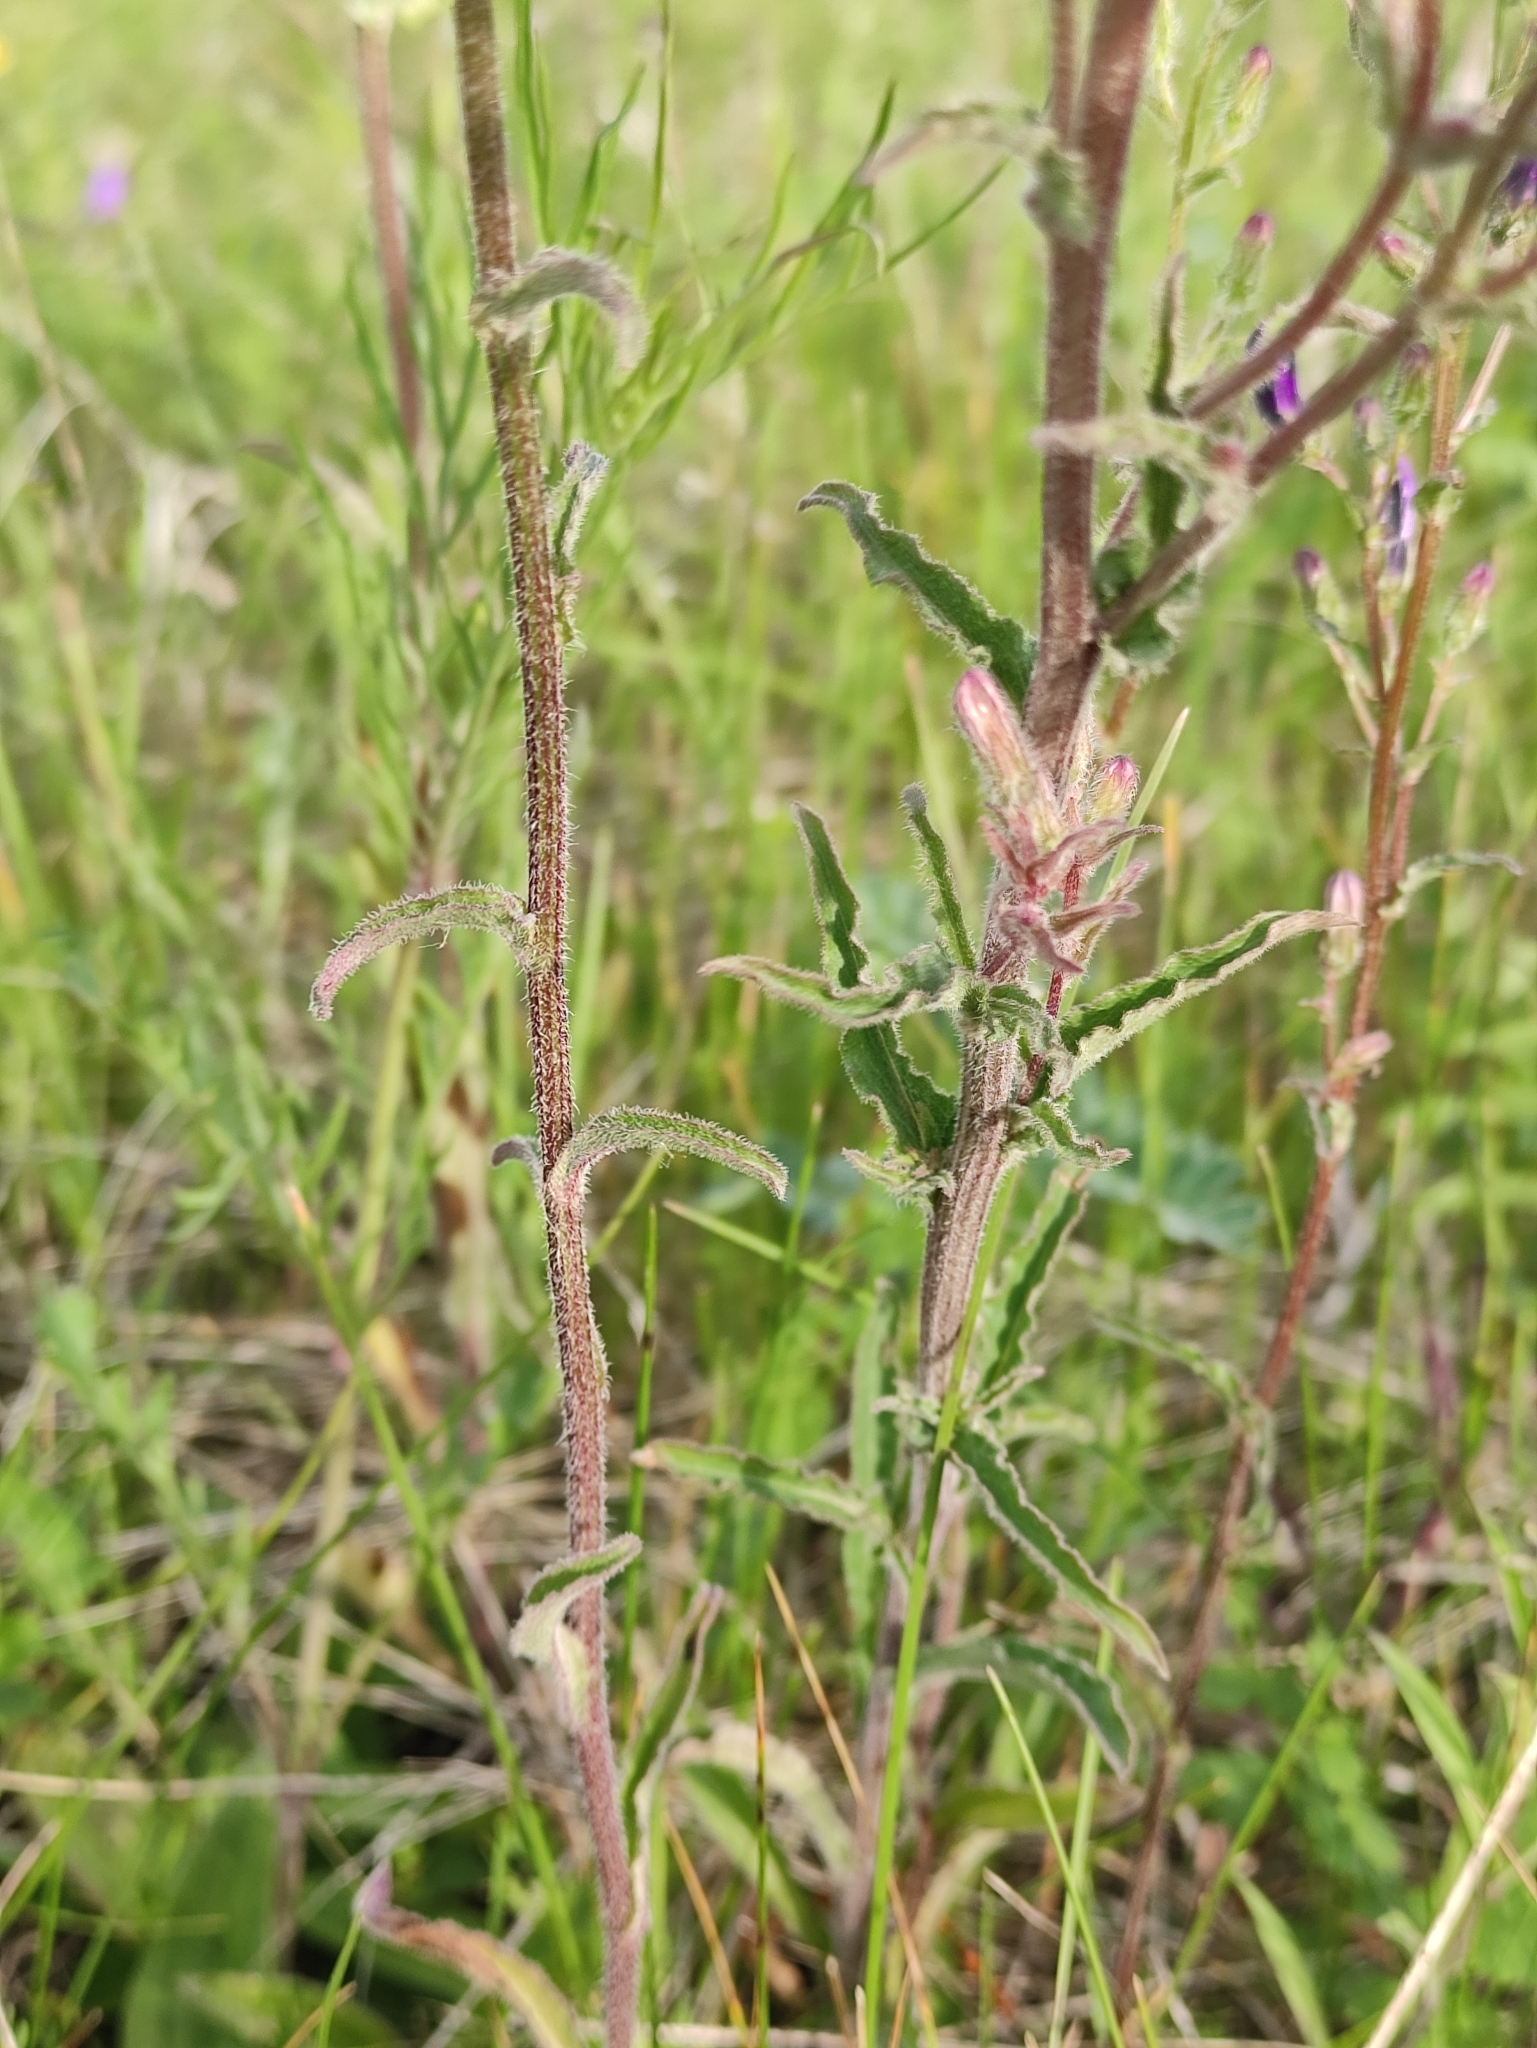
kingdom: Plantae
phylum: Tracheophyta
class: Magnoliopsida
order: Asterales
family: Campanulaceae
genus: Campanula
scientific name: Campanula sibirica
